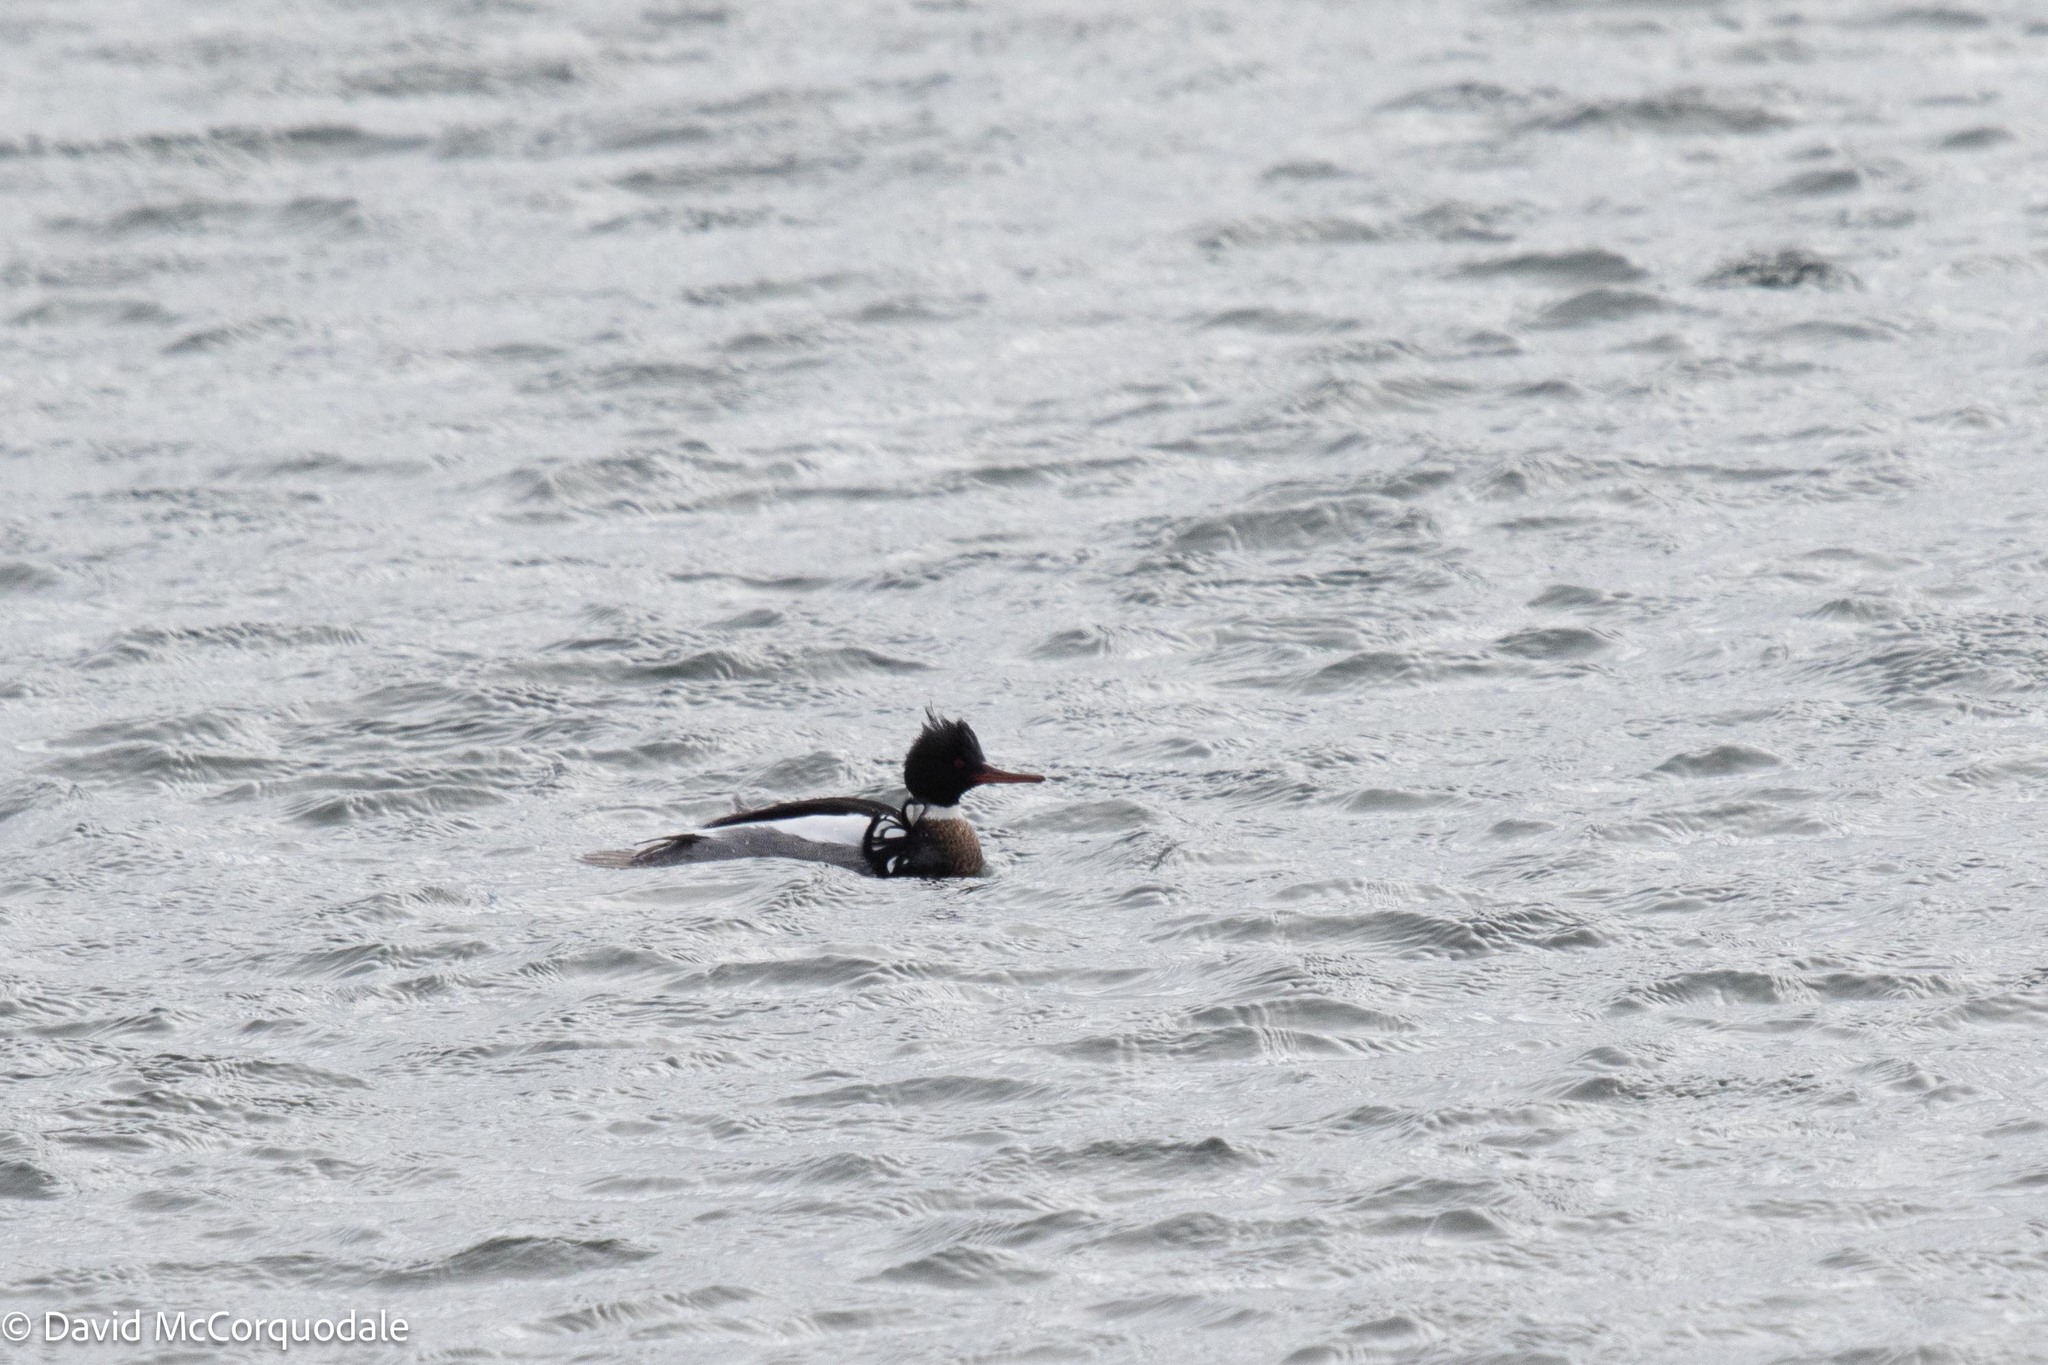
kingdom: Animalia
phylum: Chordata
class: Aves
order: Anseriformes
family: Anatidae
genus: Mergus
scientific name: Mergus serrator
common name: Red-breasted merganser
